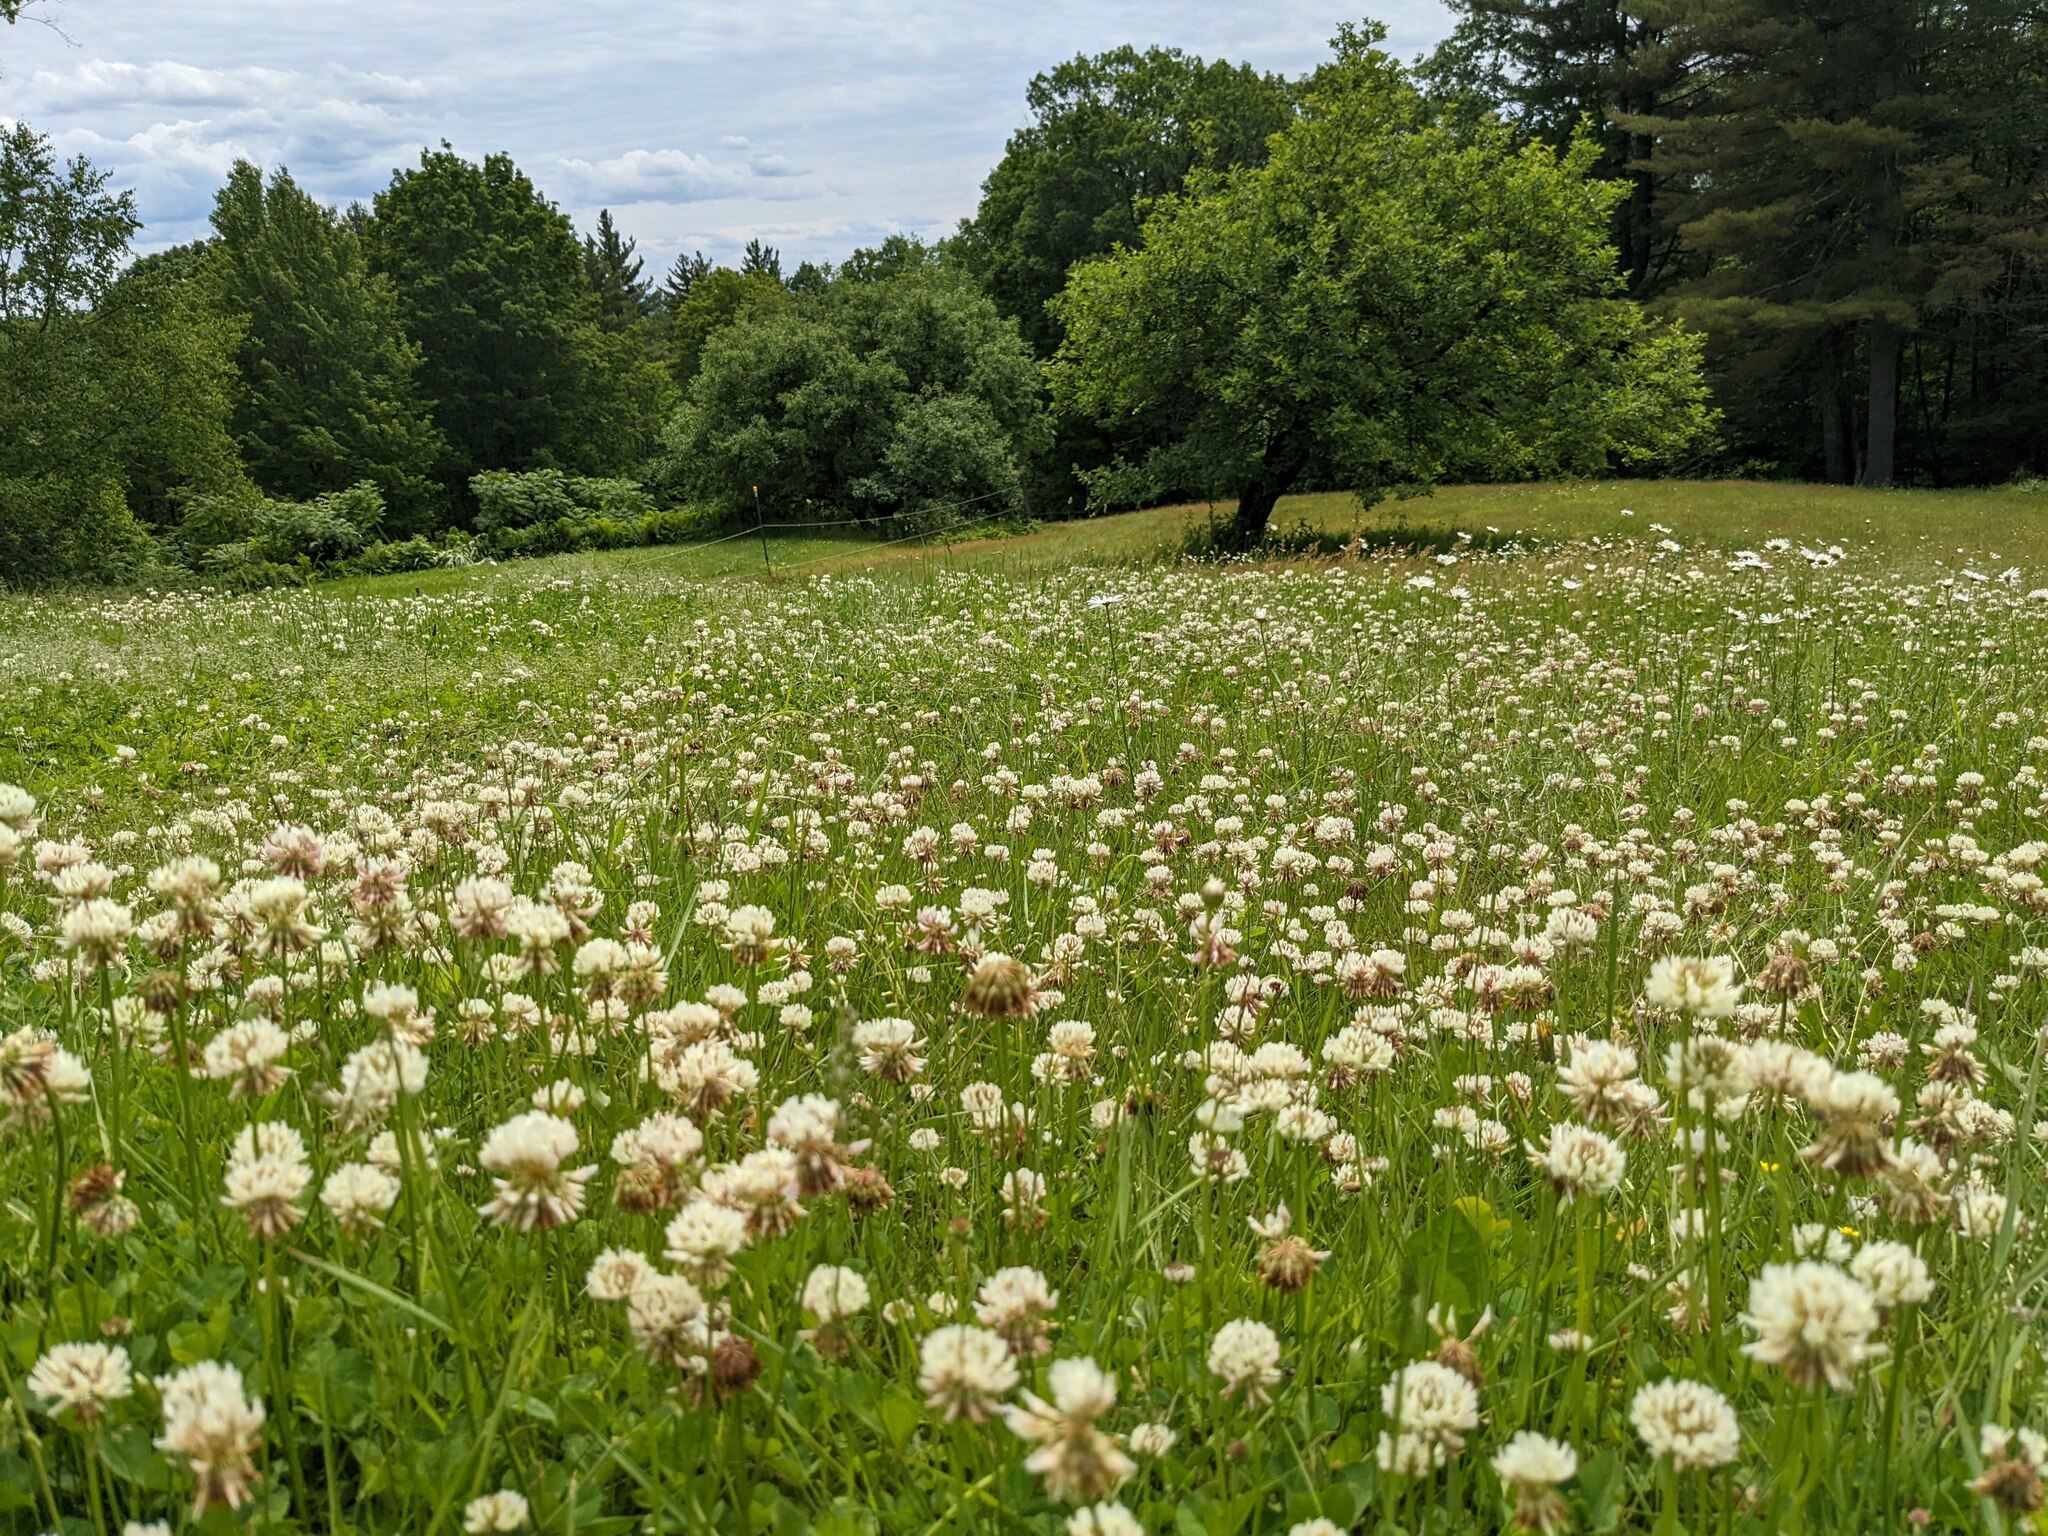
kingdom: Plantae
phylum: Tracheophyta
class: Magnoliopsida
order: Fabales
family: Fabaceae
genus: Trifolium
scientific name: Trifolium repens
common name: White clover
